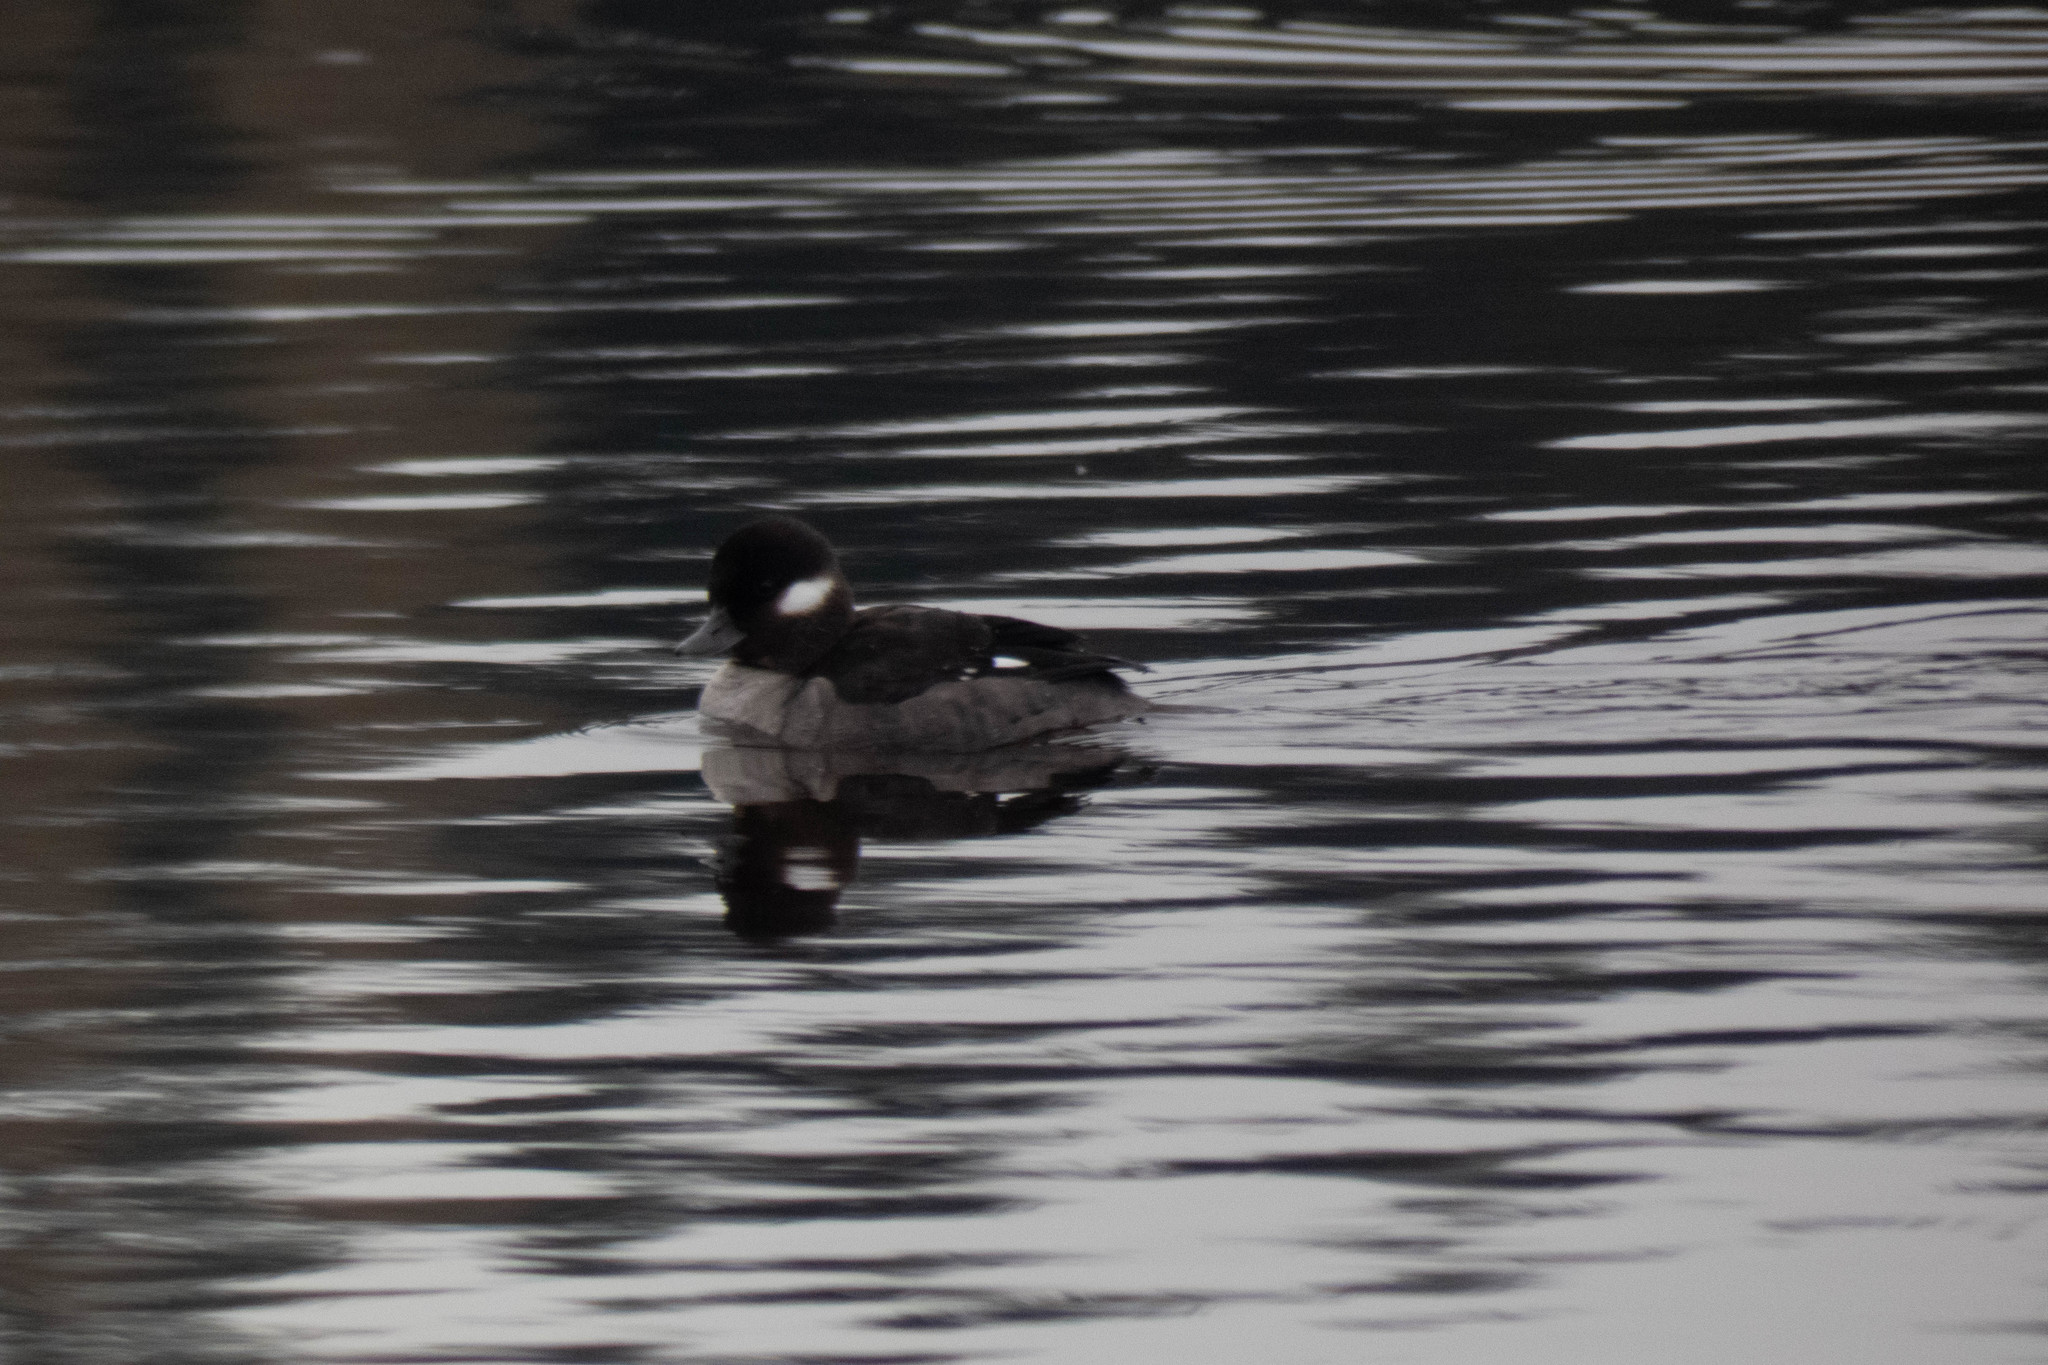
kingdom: Animalia
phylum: Chordata
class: Aves
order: Anseriformes
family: Anatidae
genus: Bucephala
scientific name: Bucephala albeola
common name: Bufflehead
